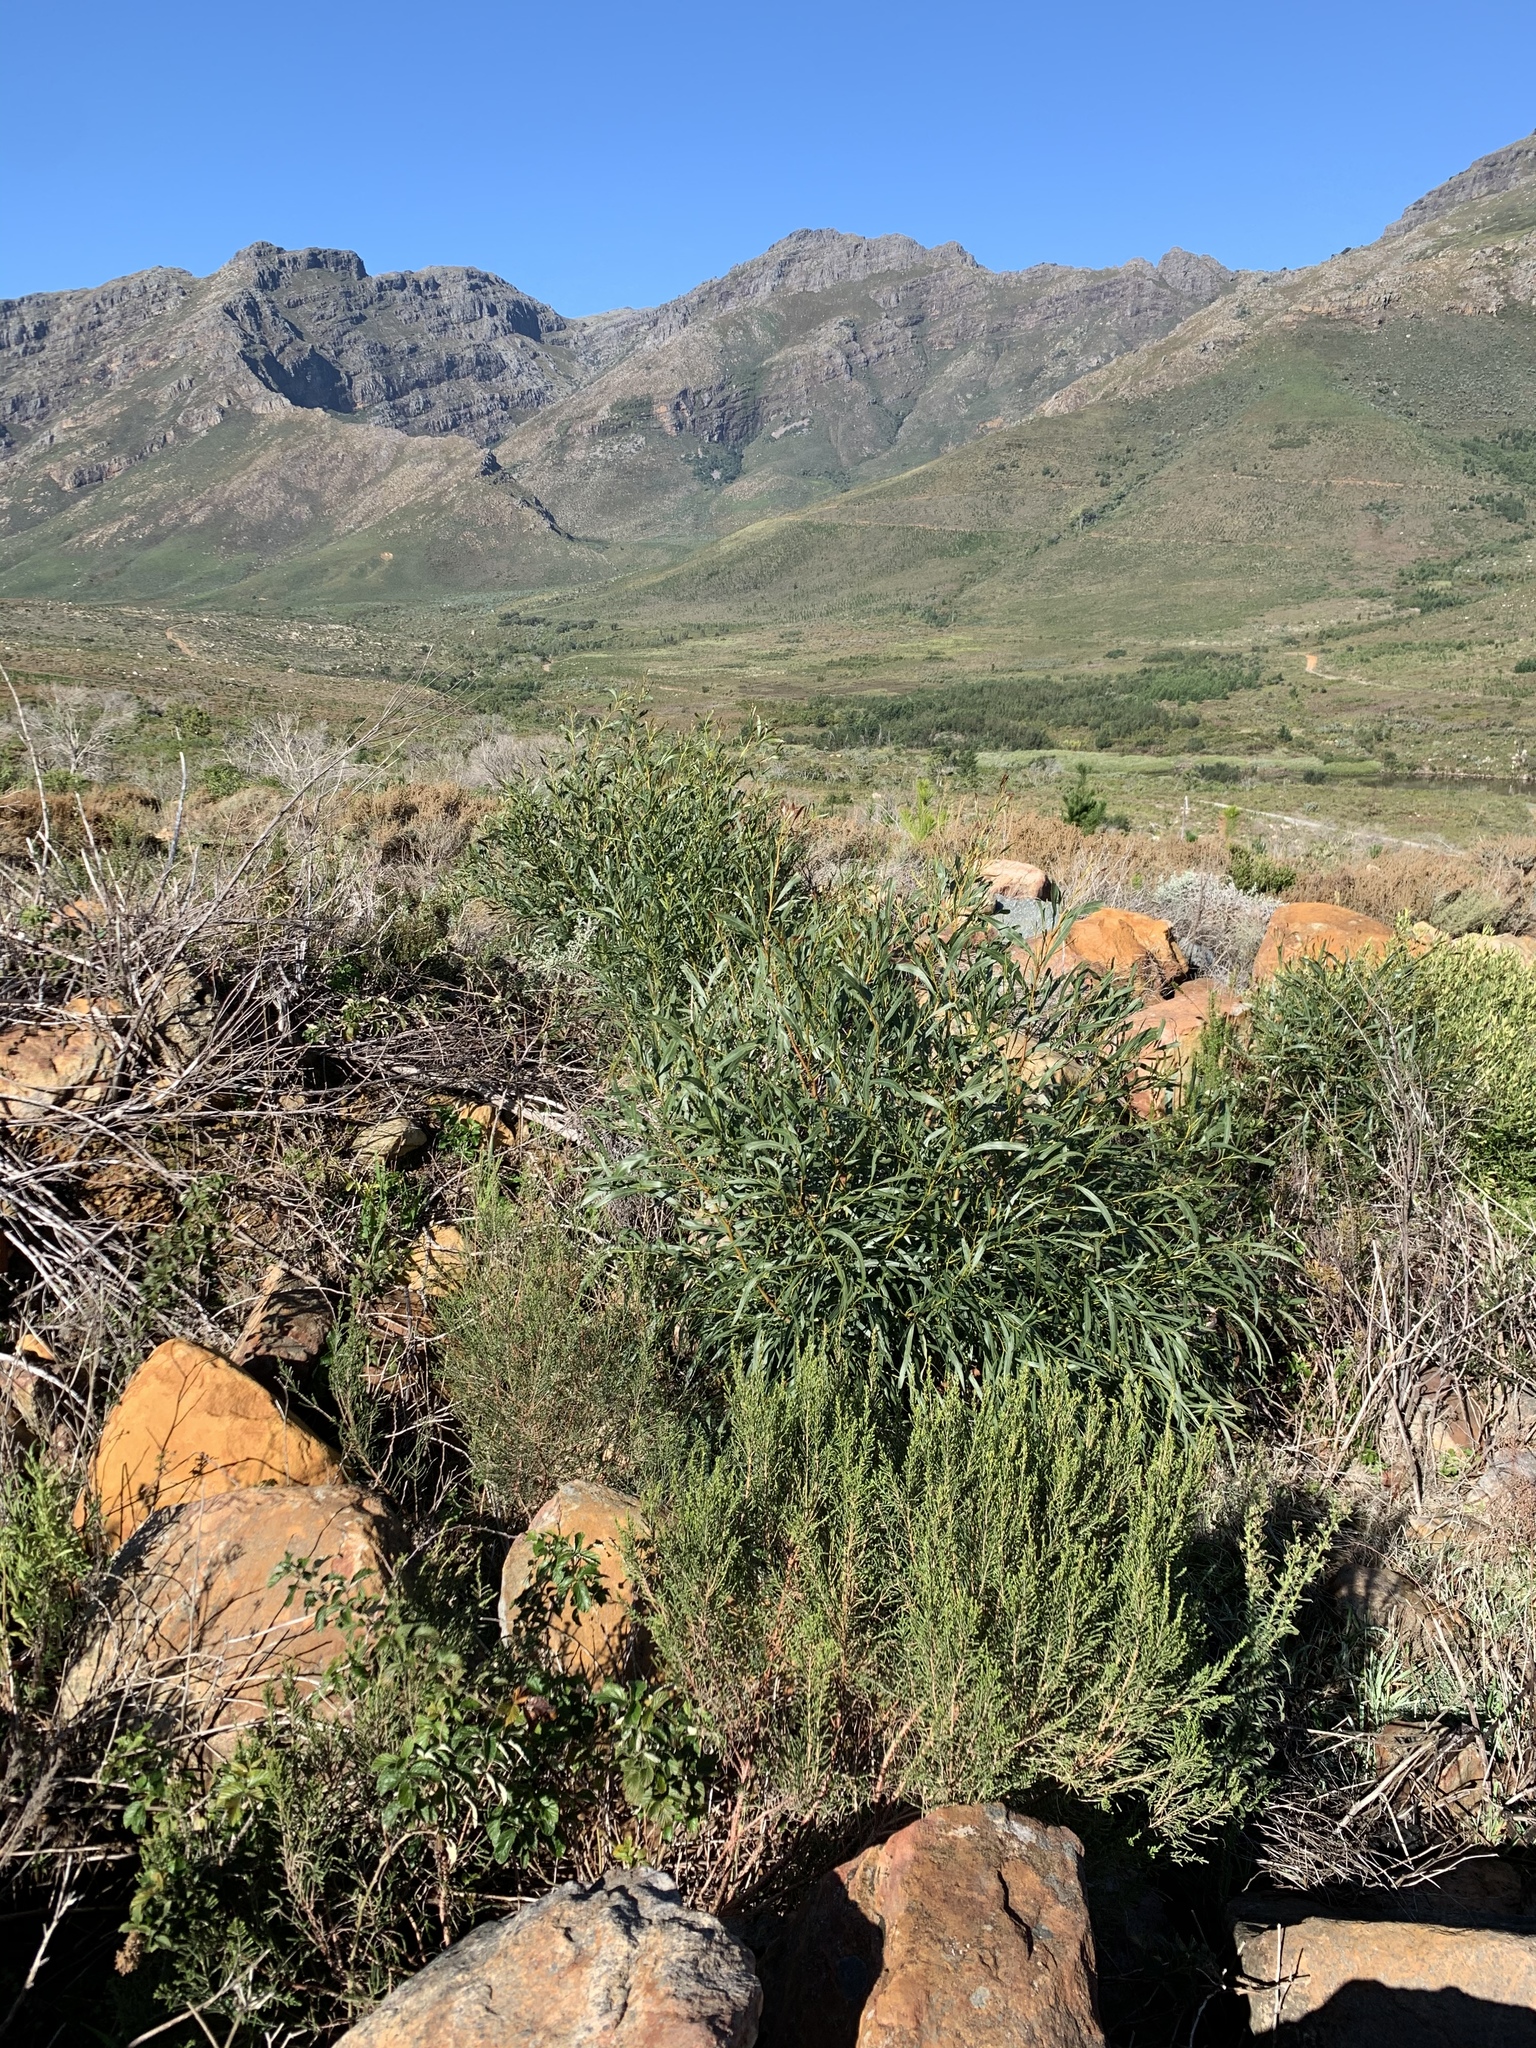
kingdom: Plantae
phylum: Tracheophyta
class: Magnoliopsida
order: Fabales
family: Fabaceae
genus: Acacia
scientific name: Acacia saligna
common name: Orange wattle
